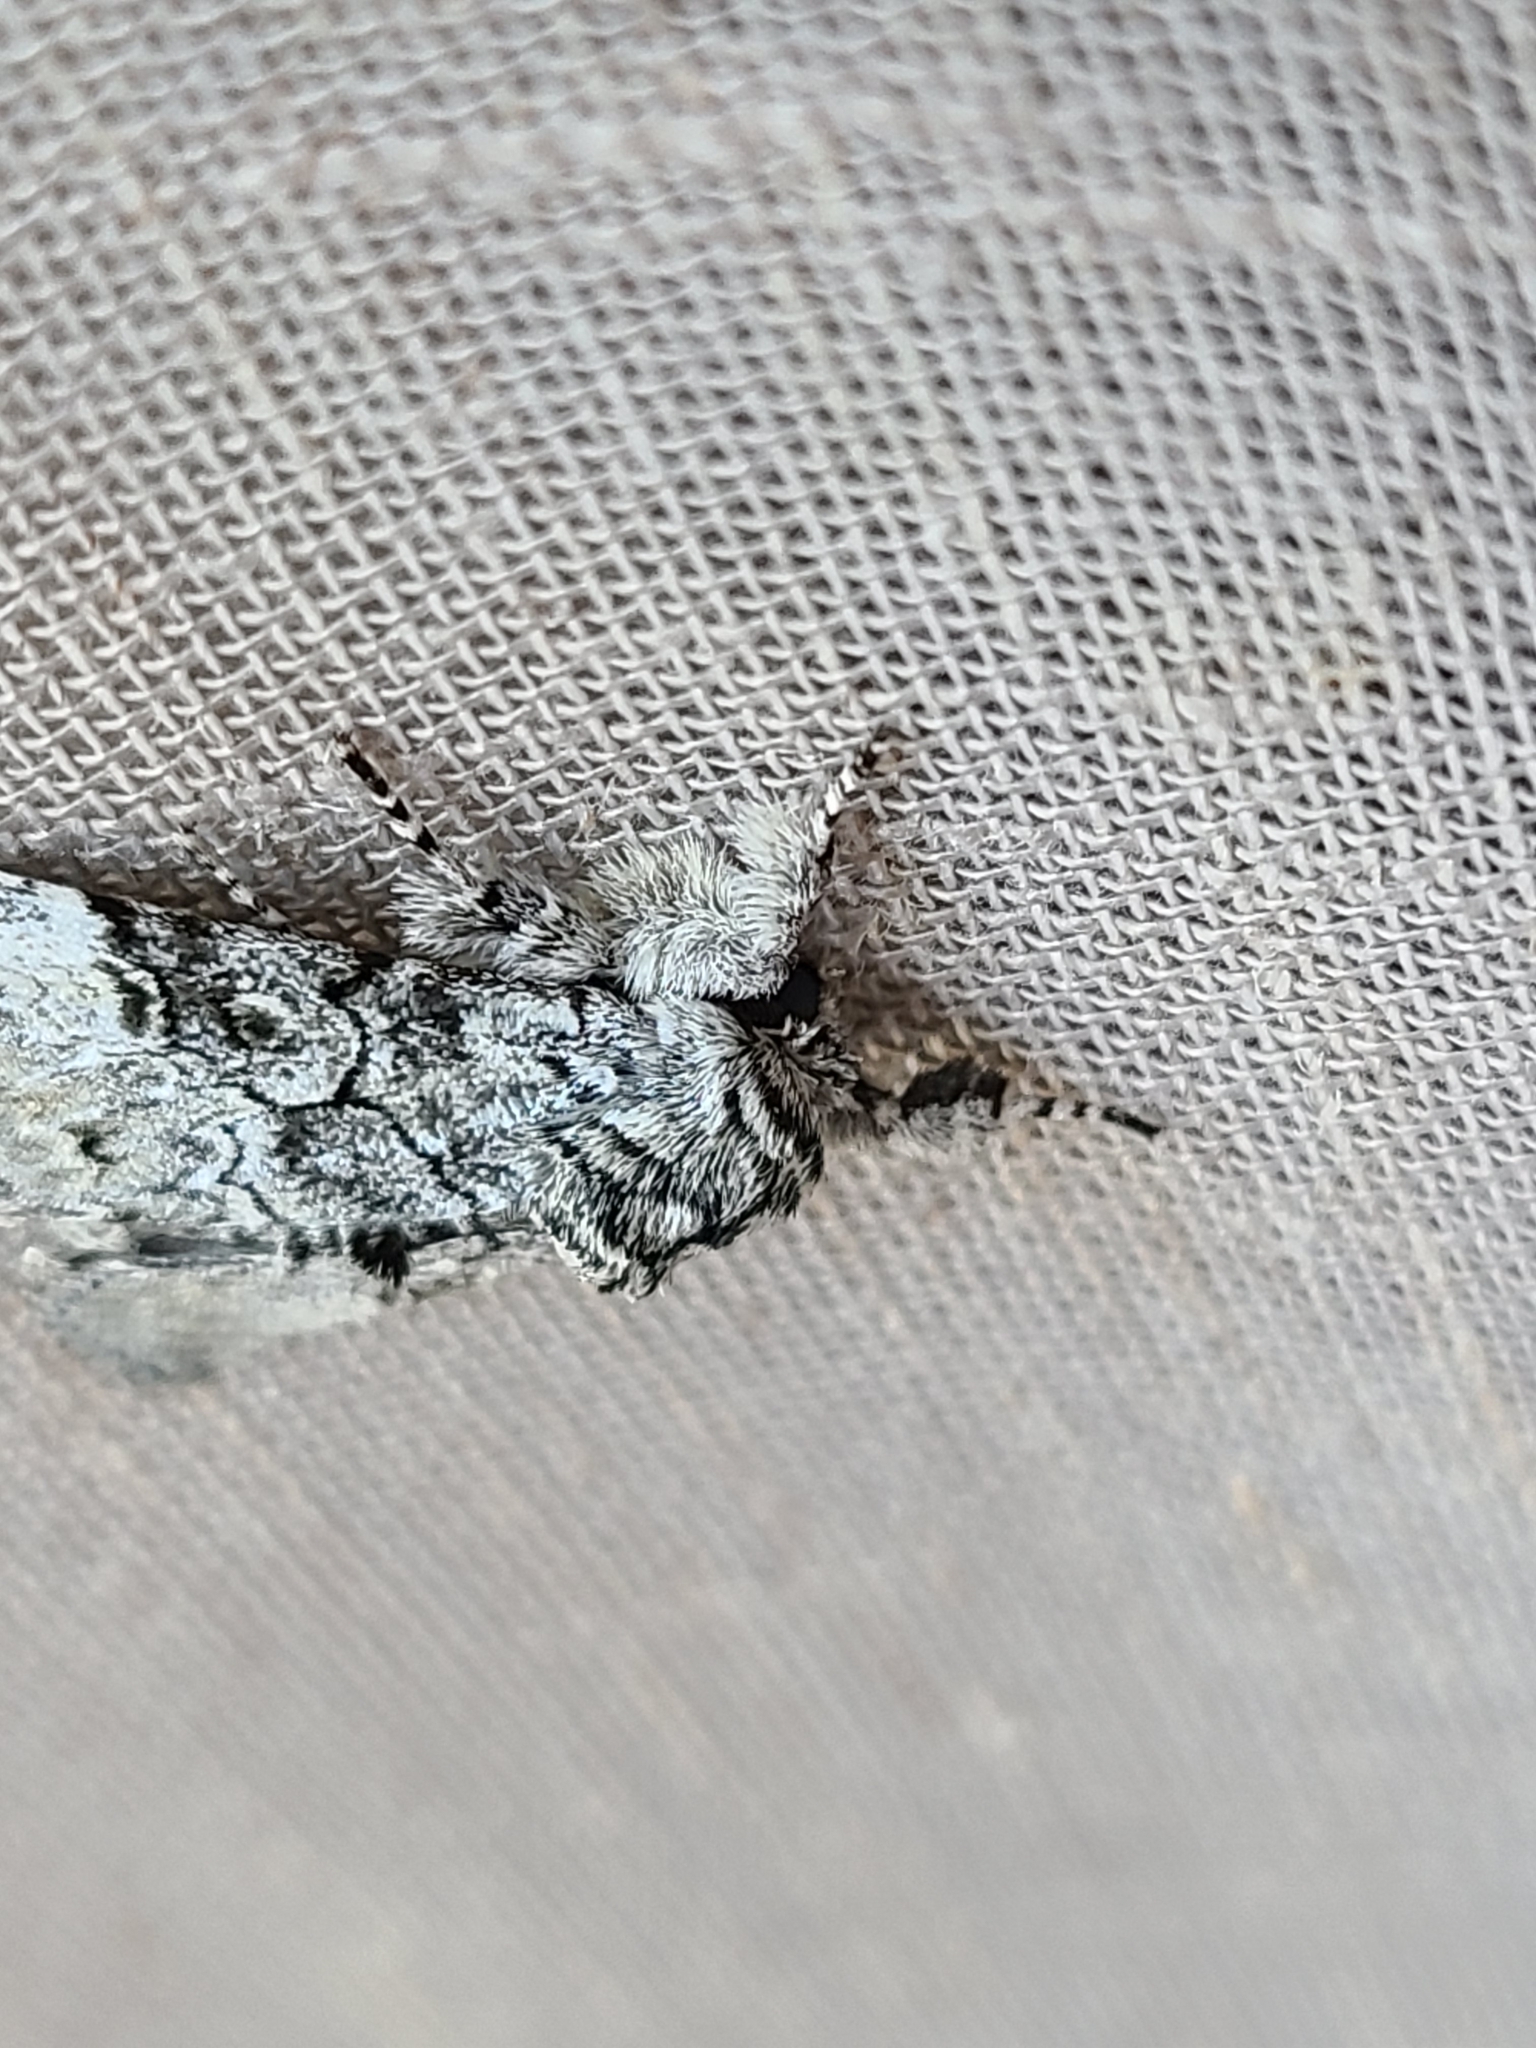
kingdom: Animalia
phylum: Arthropoda
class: Insecta
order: Lepidoptera
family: Noctuidae
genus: Charadra
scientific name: Charadra deridens
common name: Marbled tuffet
